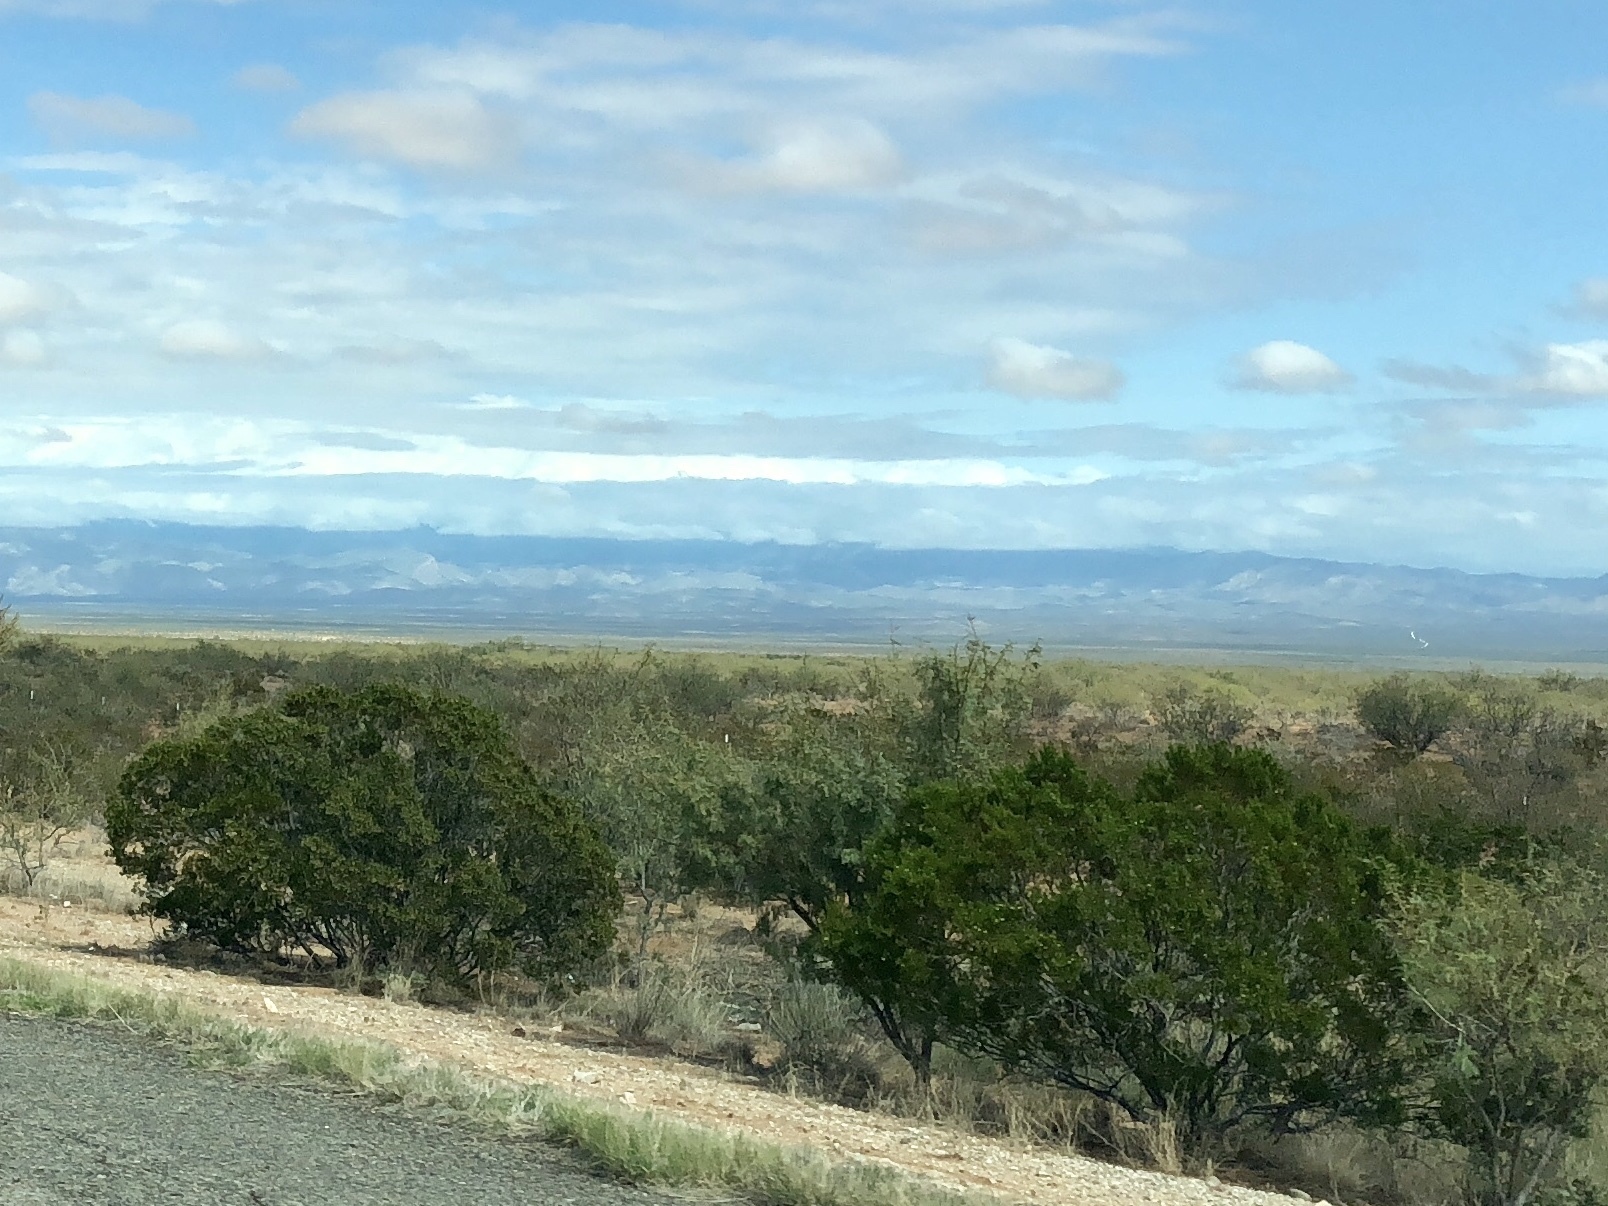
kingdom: Plantae
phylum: Tracheophyta
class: Magnoliopsida
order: Zygophyllales
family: Zygophyllaceae
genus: Larrea
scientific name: Larrea tridentata
